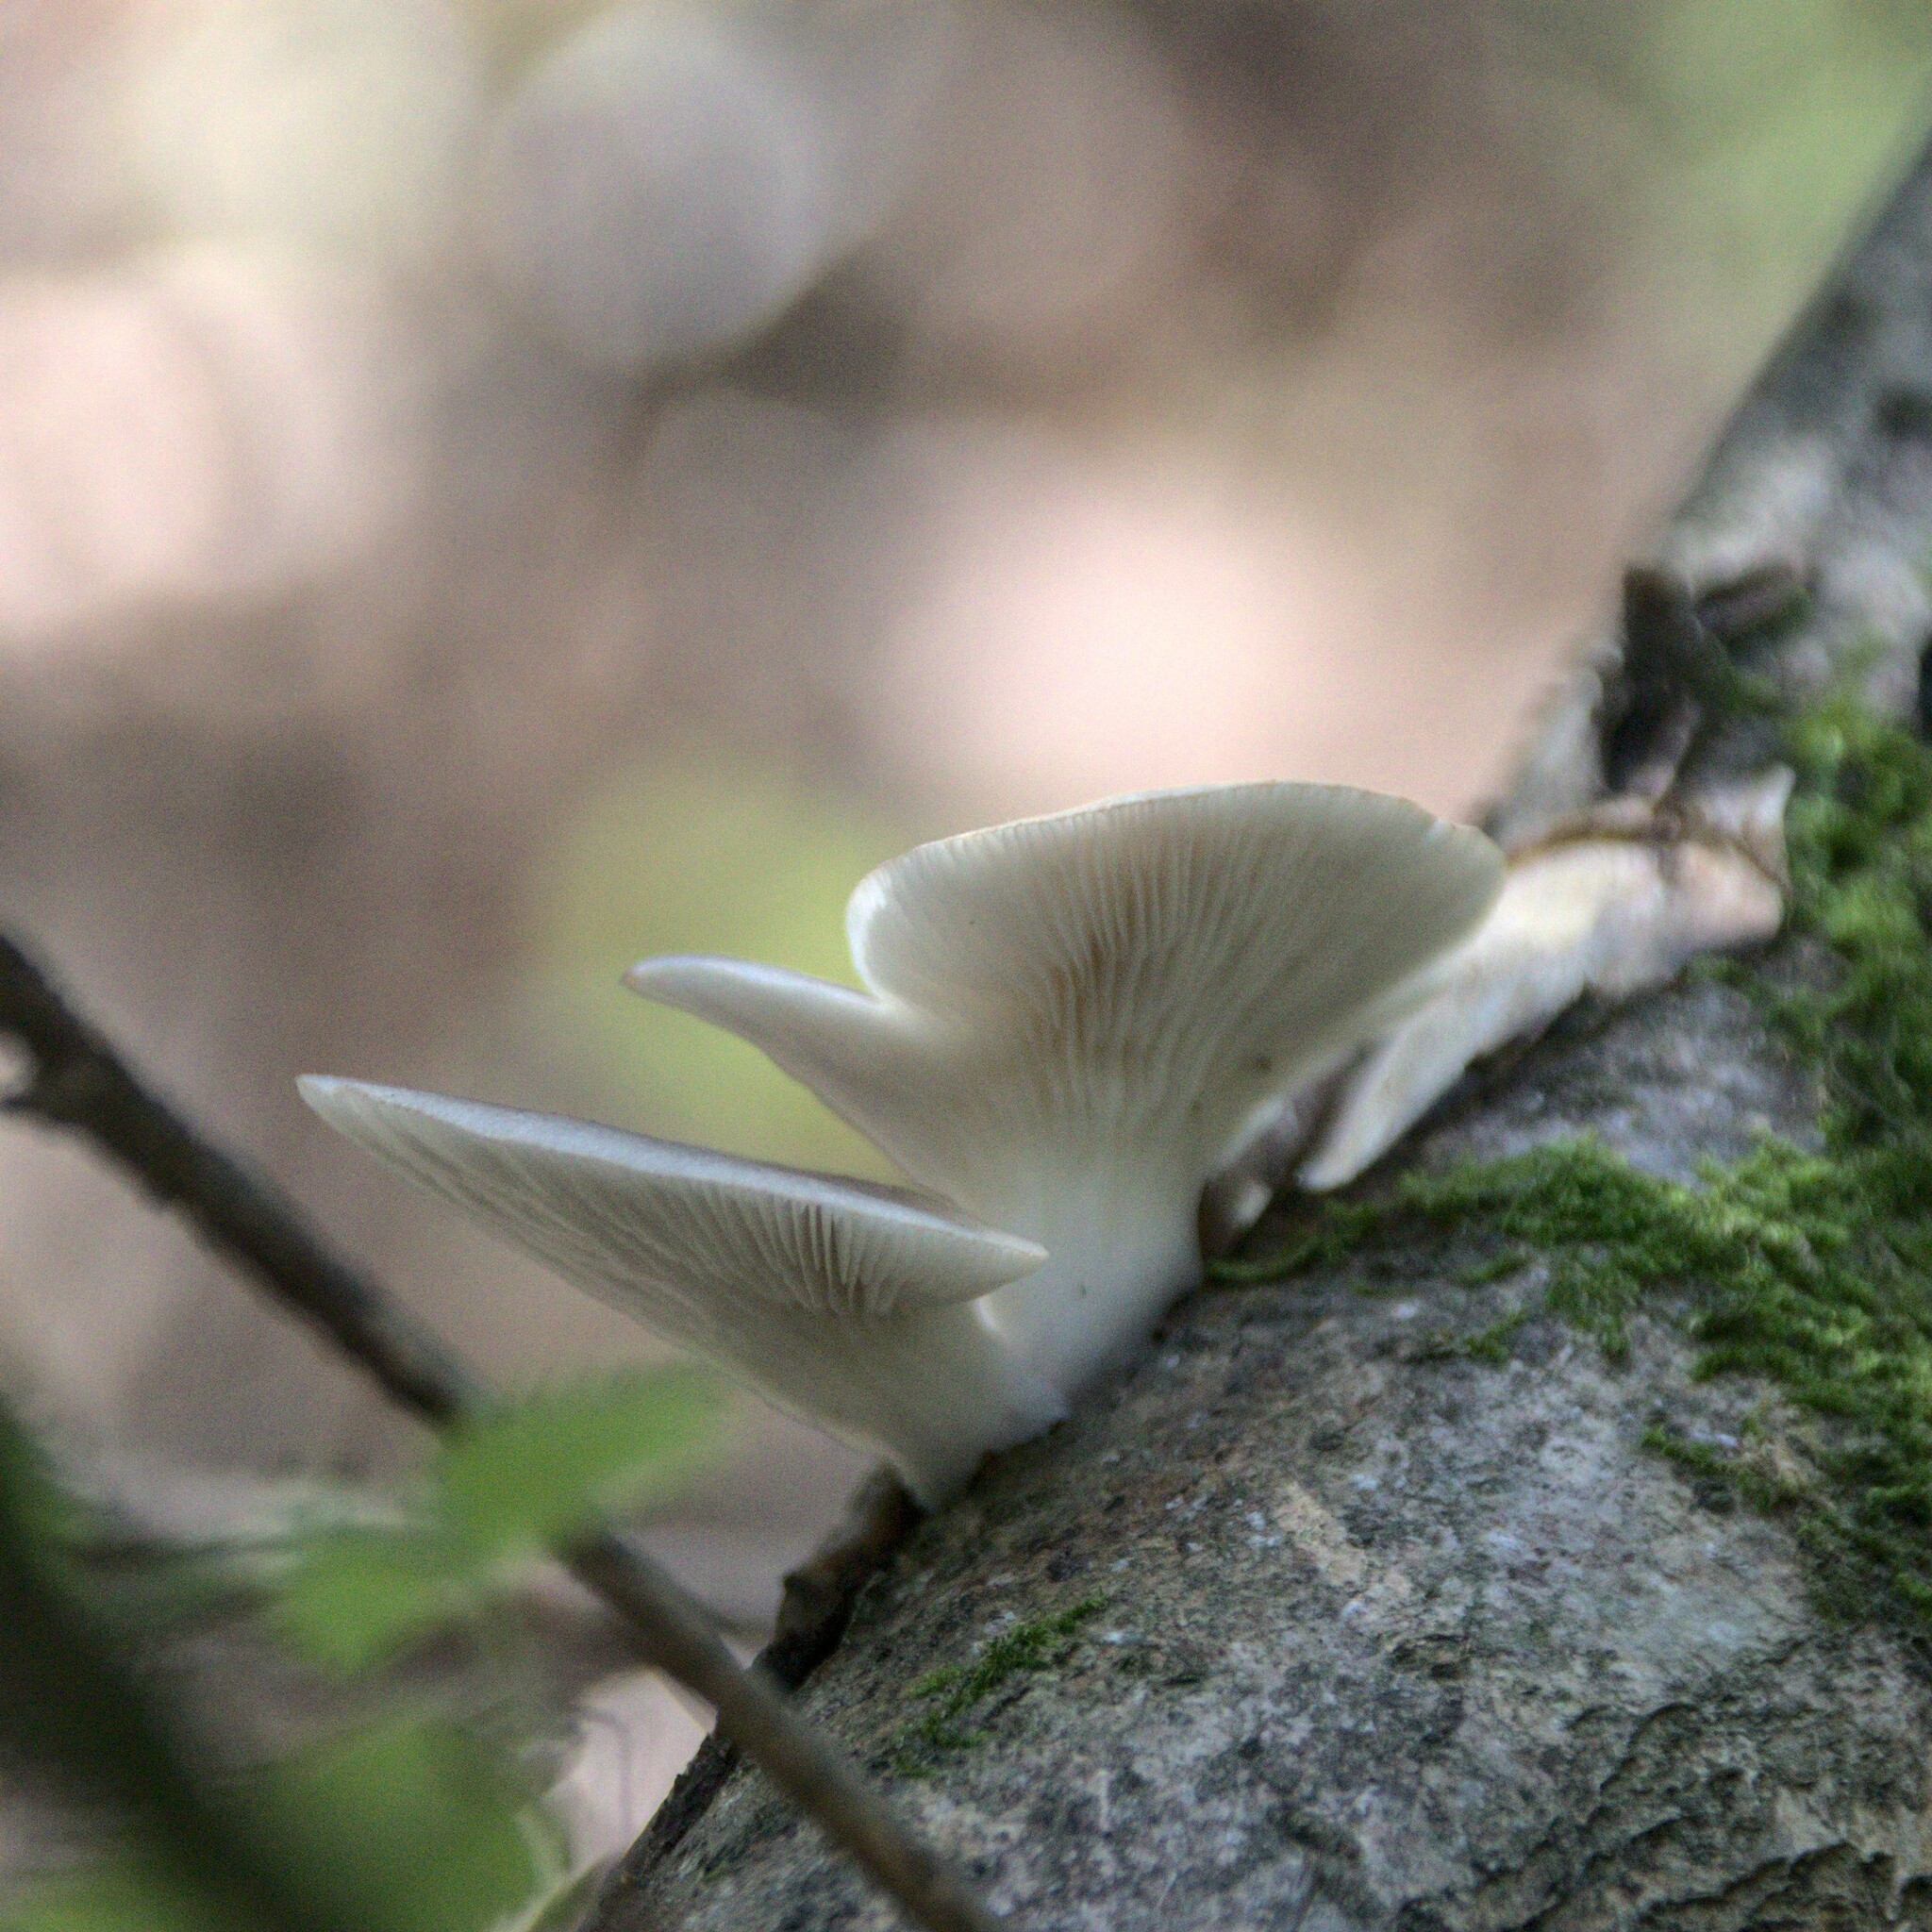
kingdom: Fungi
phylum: Basidiomycota
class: Agaricomycetes
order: Agaricales
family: Pleurotaceae
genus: Pleurotus
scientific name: Pleurotus pulmonarius
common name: Pale oyster
